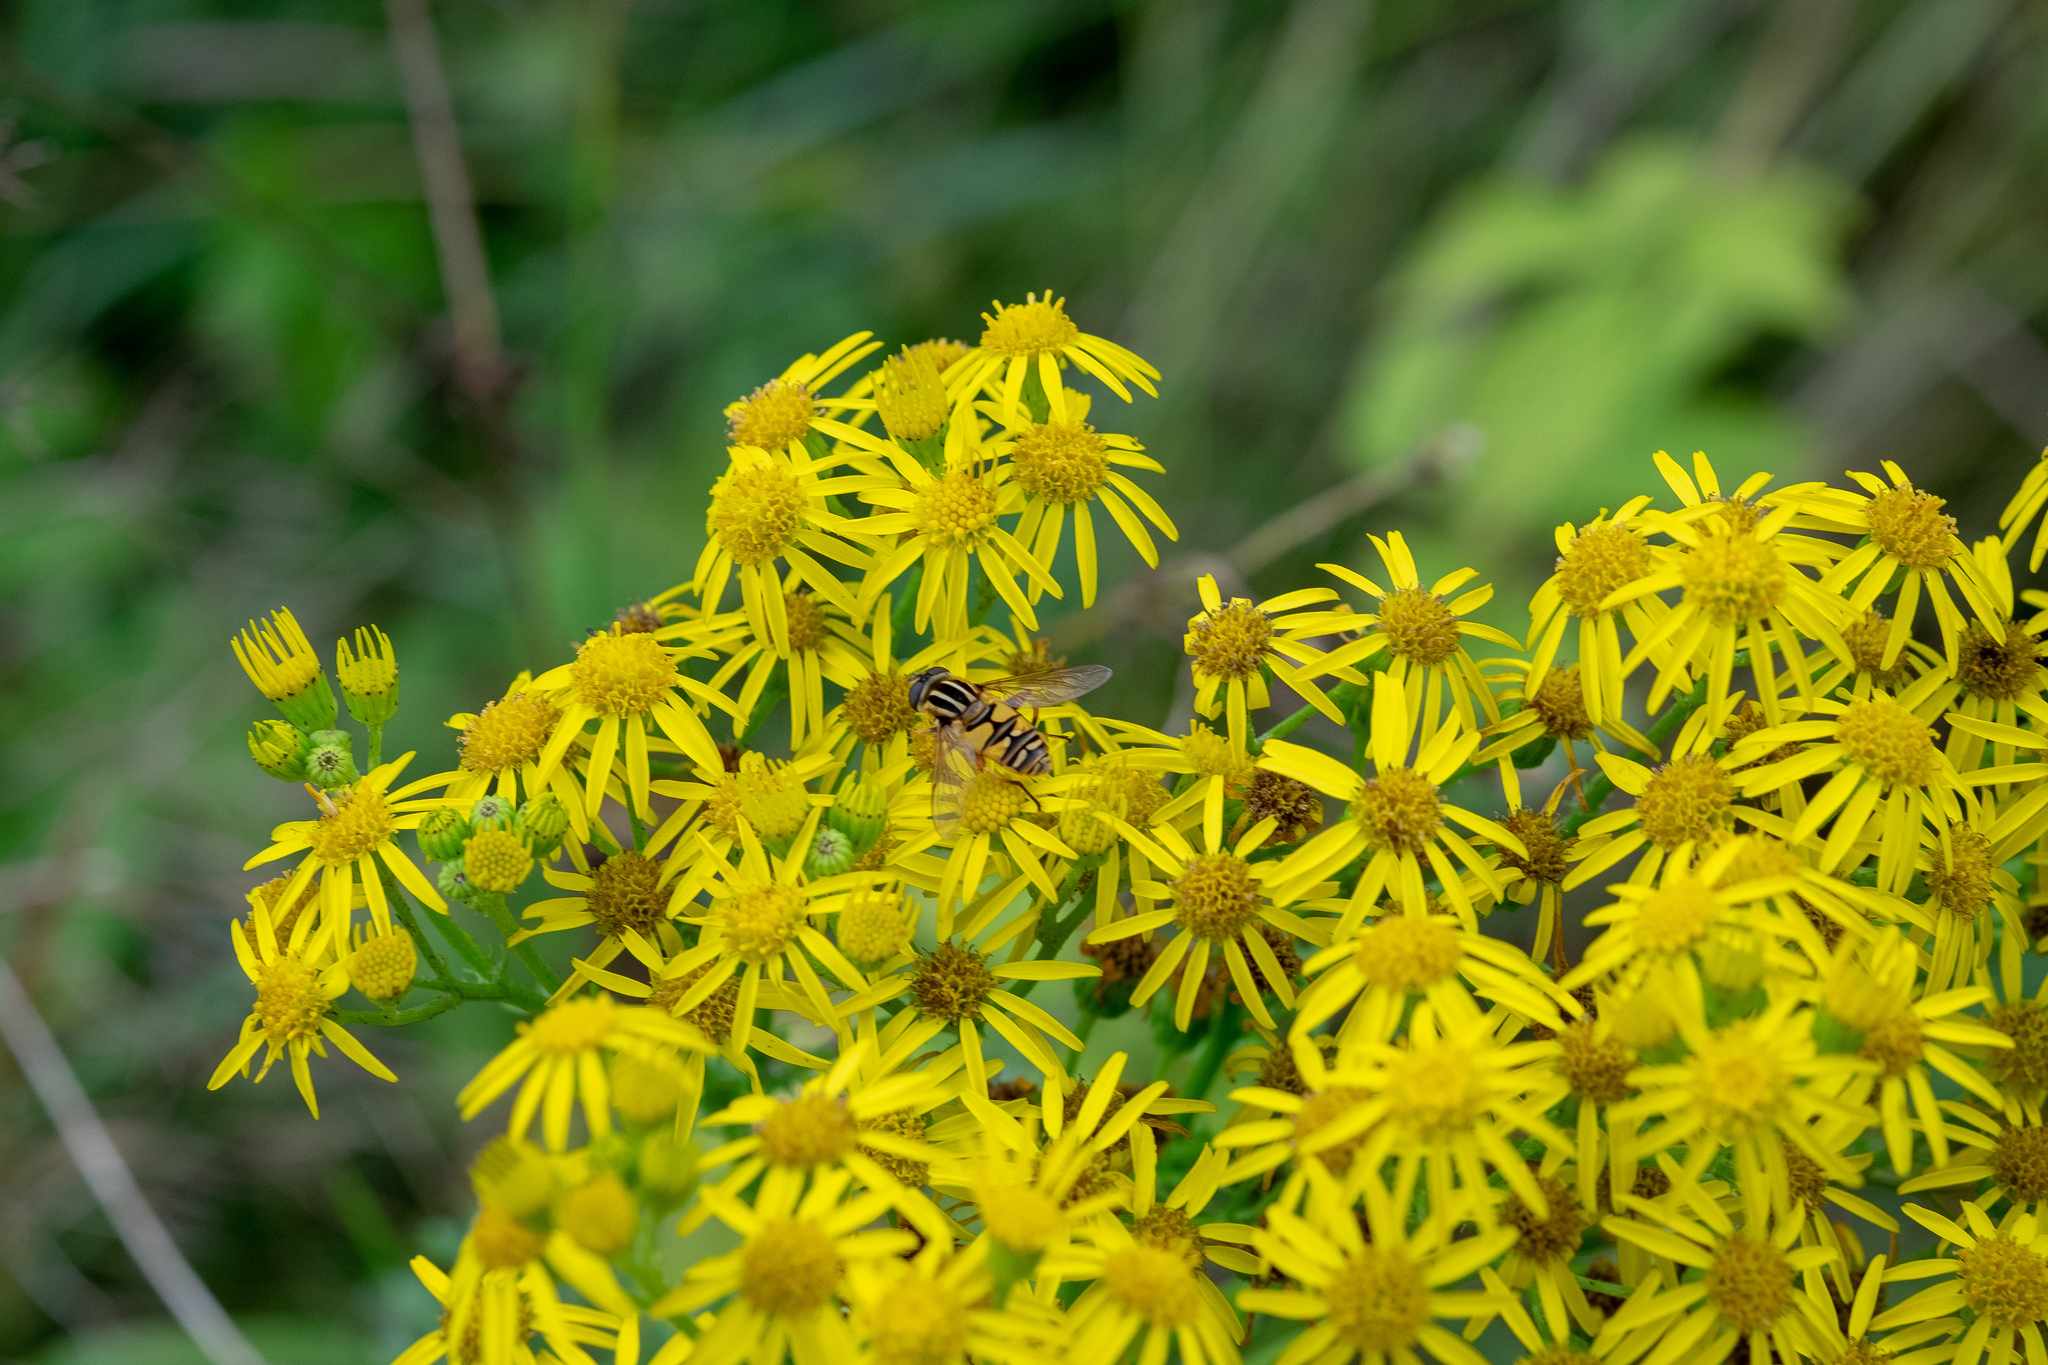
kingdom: Animalia
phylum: Arthropoda
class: Insecta
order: Diptera
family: Syrphidae
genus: Helophilus
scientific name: Helophilus pendulus
